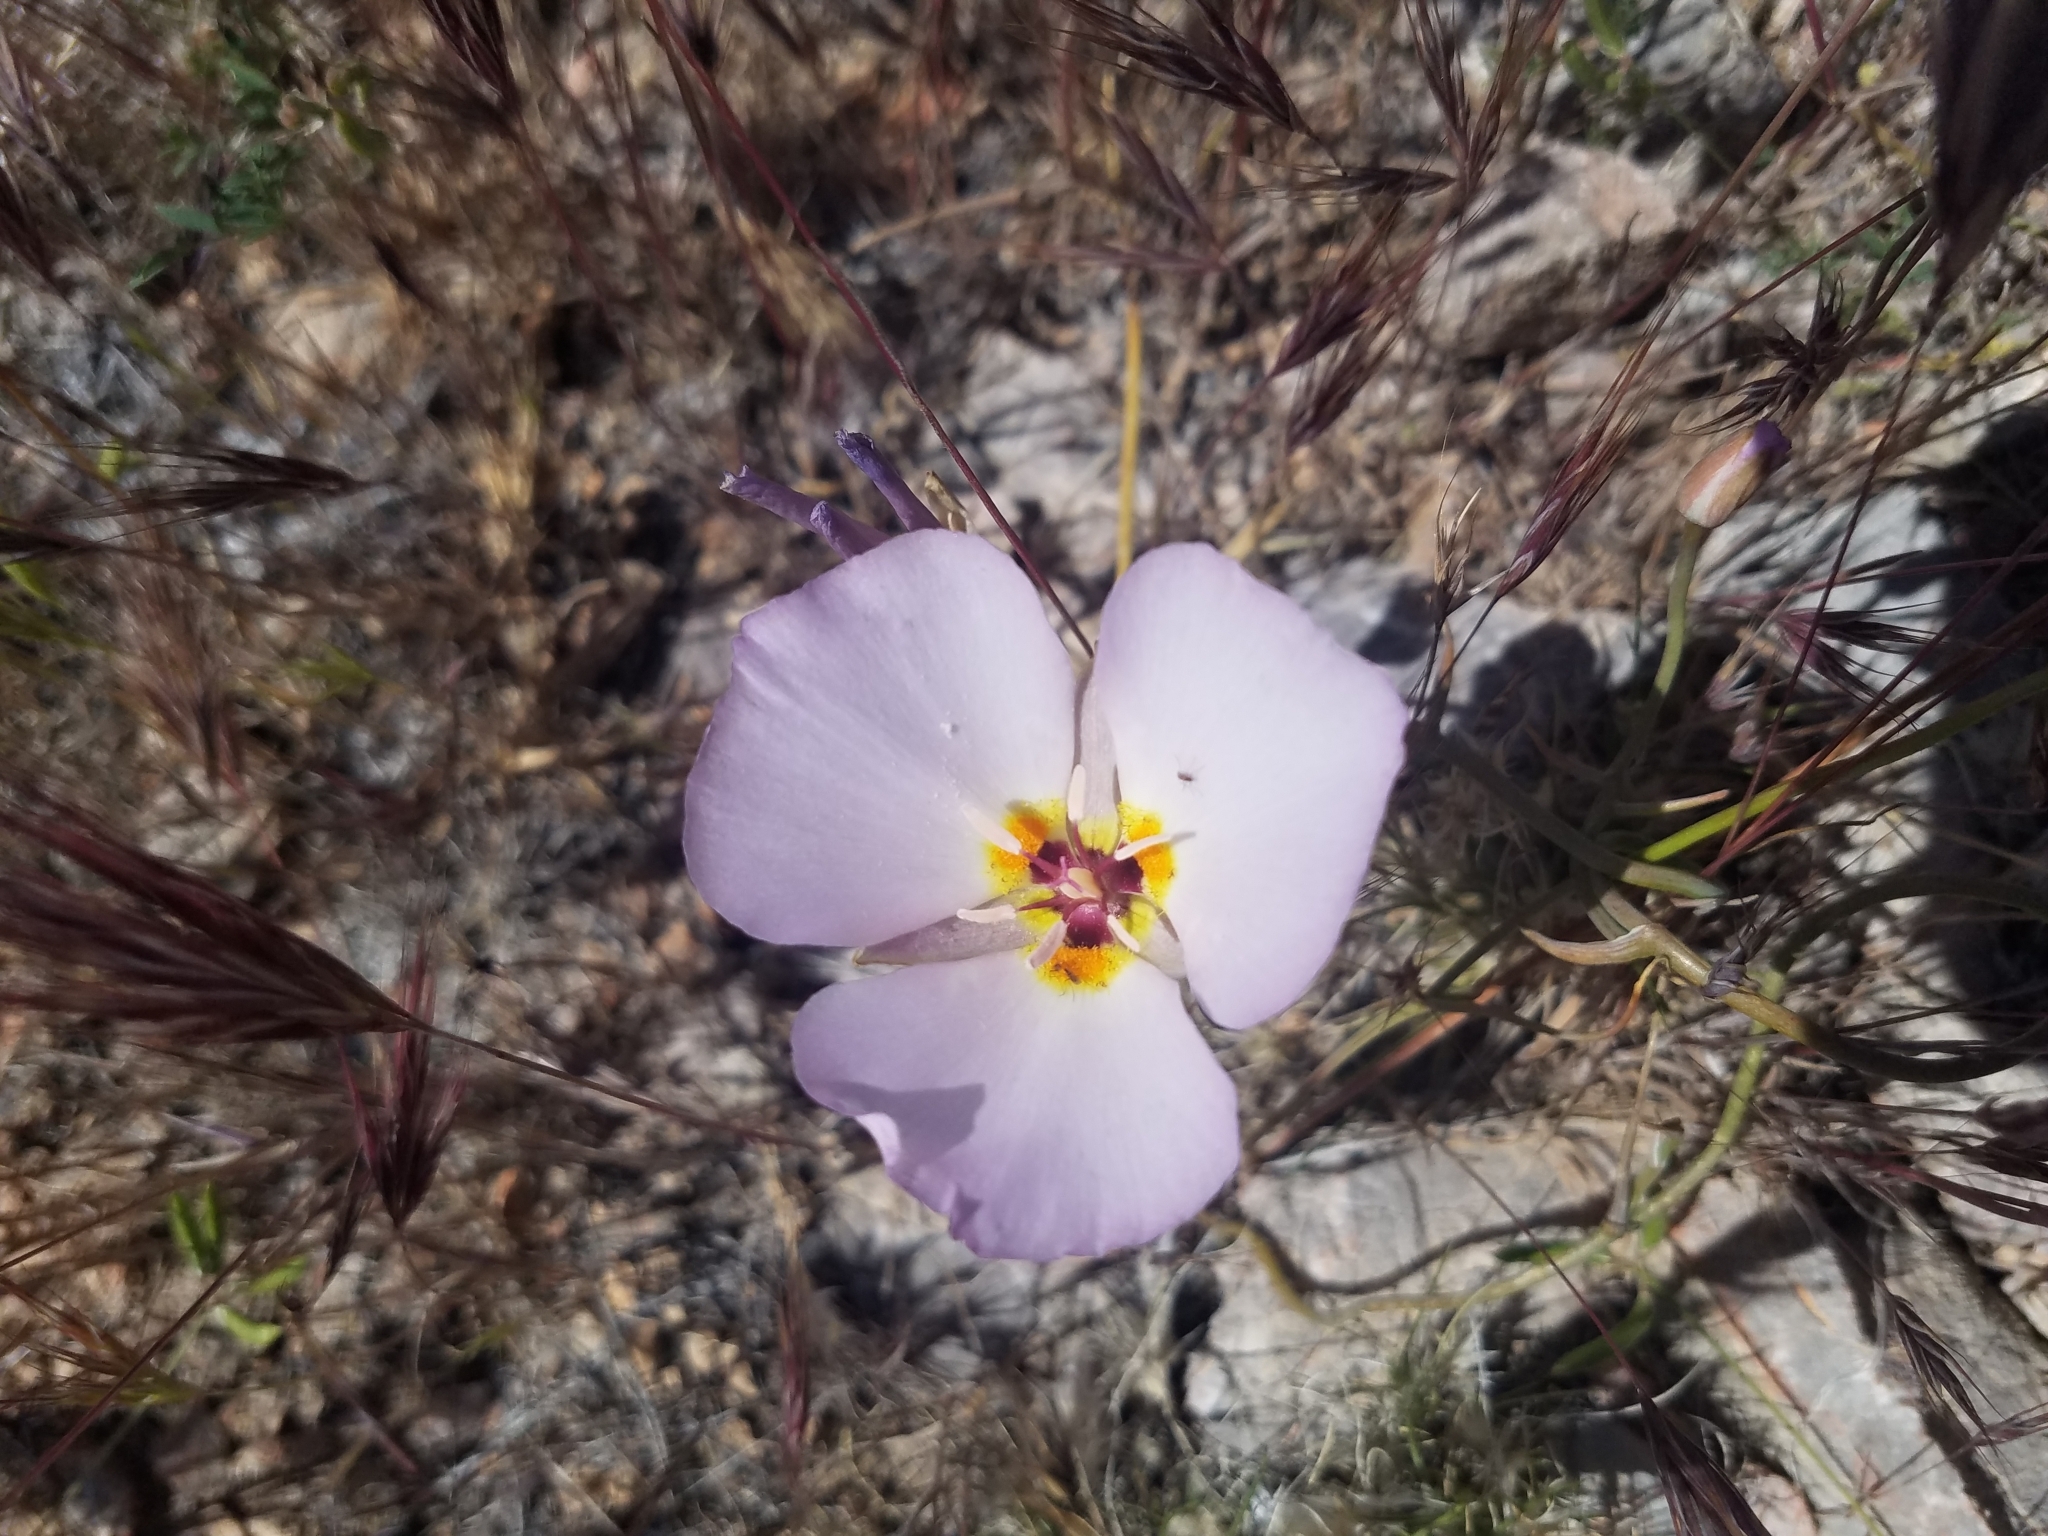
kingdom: Plantae
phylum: Tracheophyta
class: Liliopsida
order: Liliales
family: Liliaceae
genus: Calochortus
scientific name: Calochortus flexuosus
